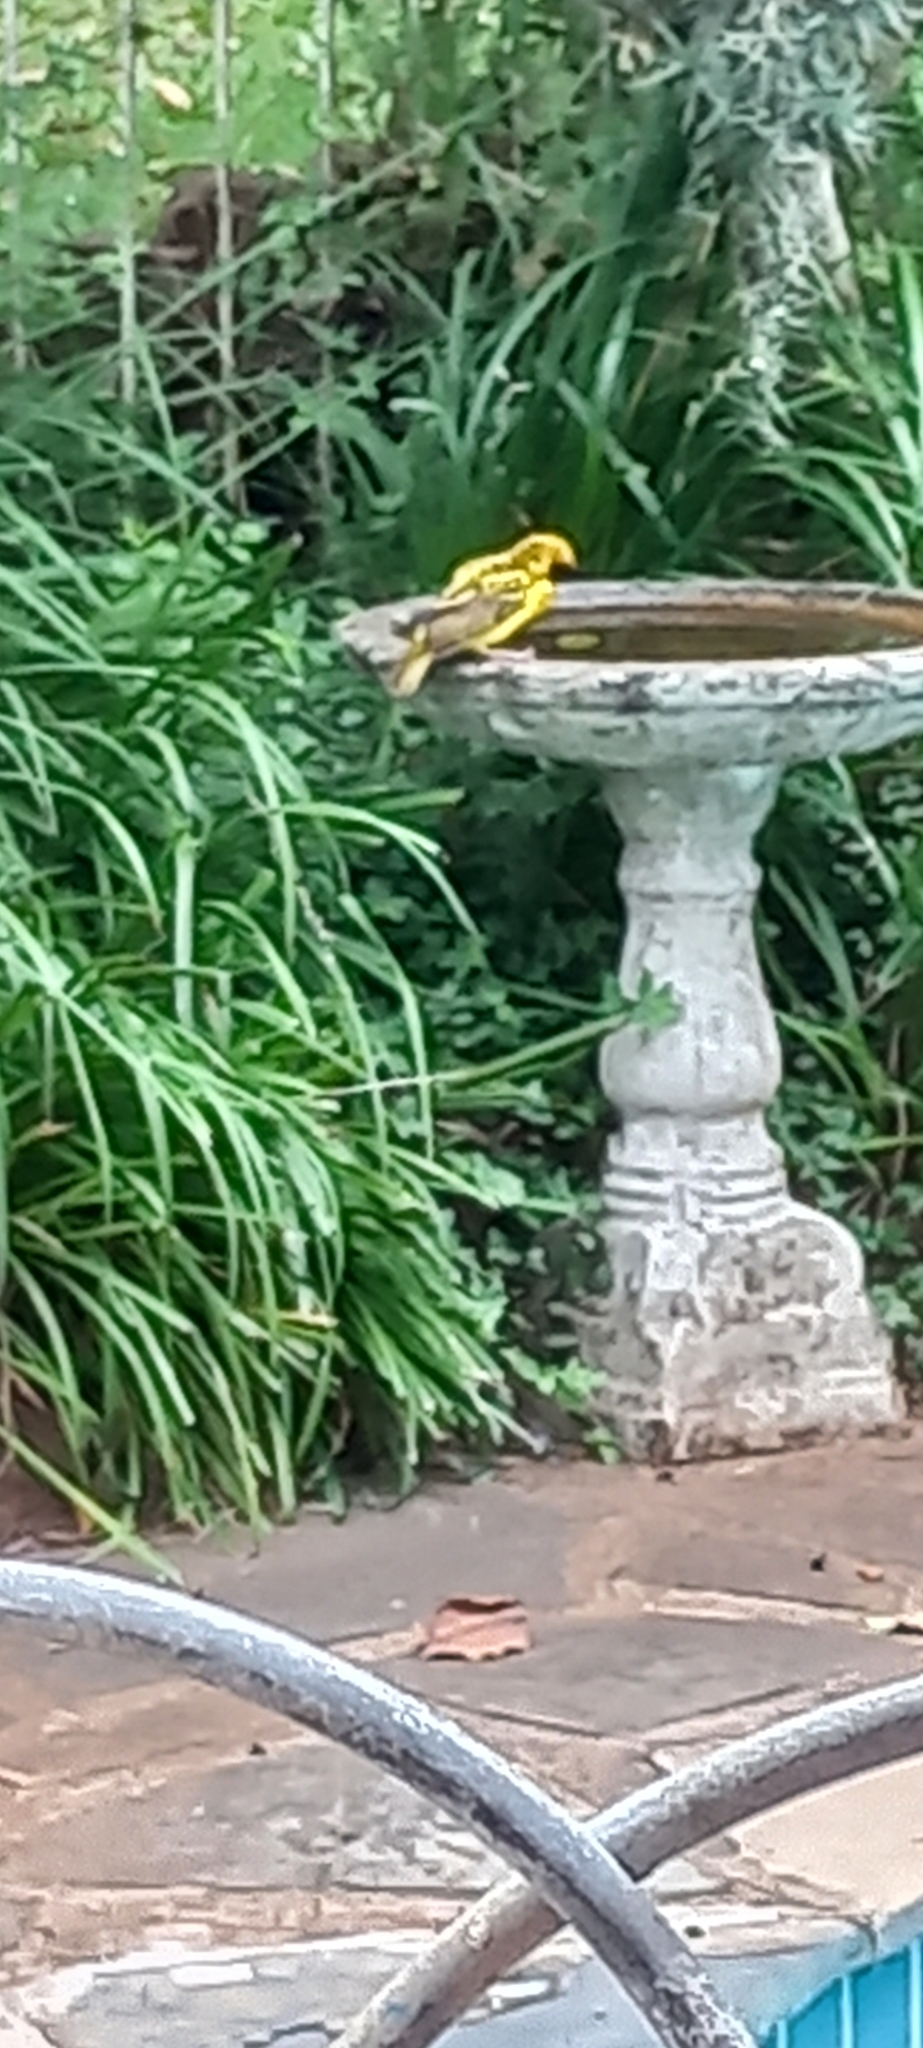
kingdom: Animalia
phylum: Chordata
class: Aves
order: Passeriformes
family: Ploceidae
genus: Ploceus
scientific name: Ploceus cucullatus
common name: Village weaver
